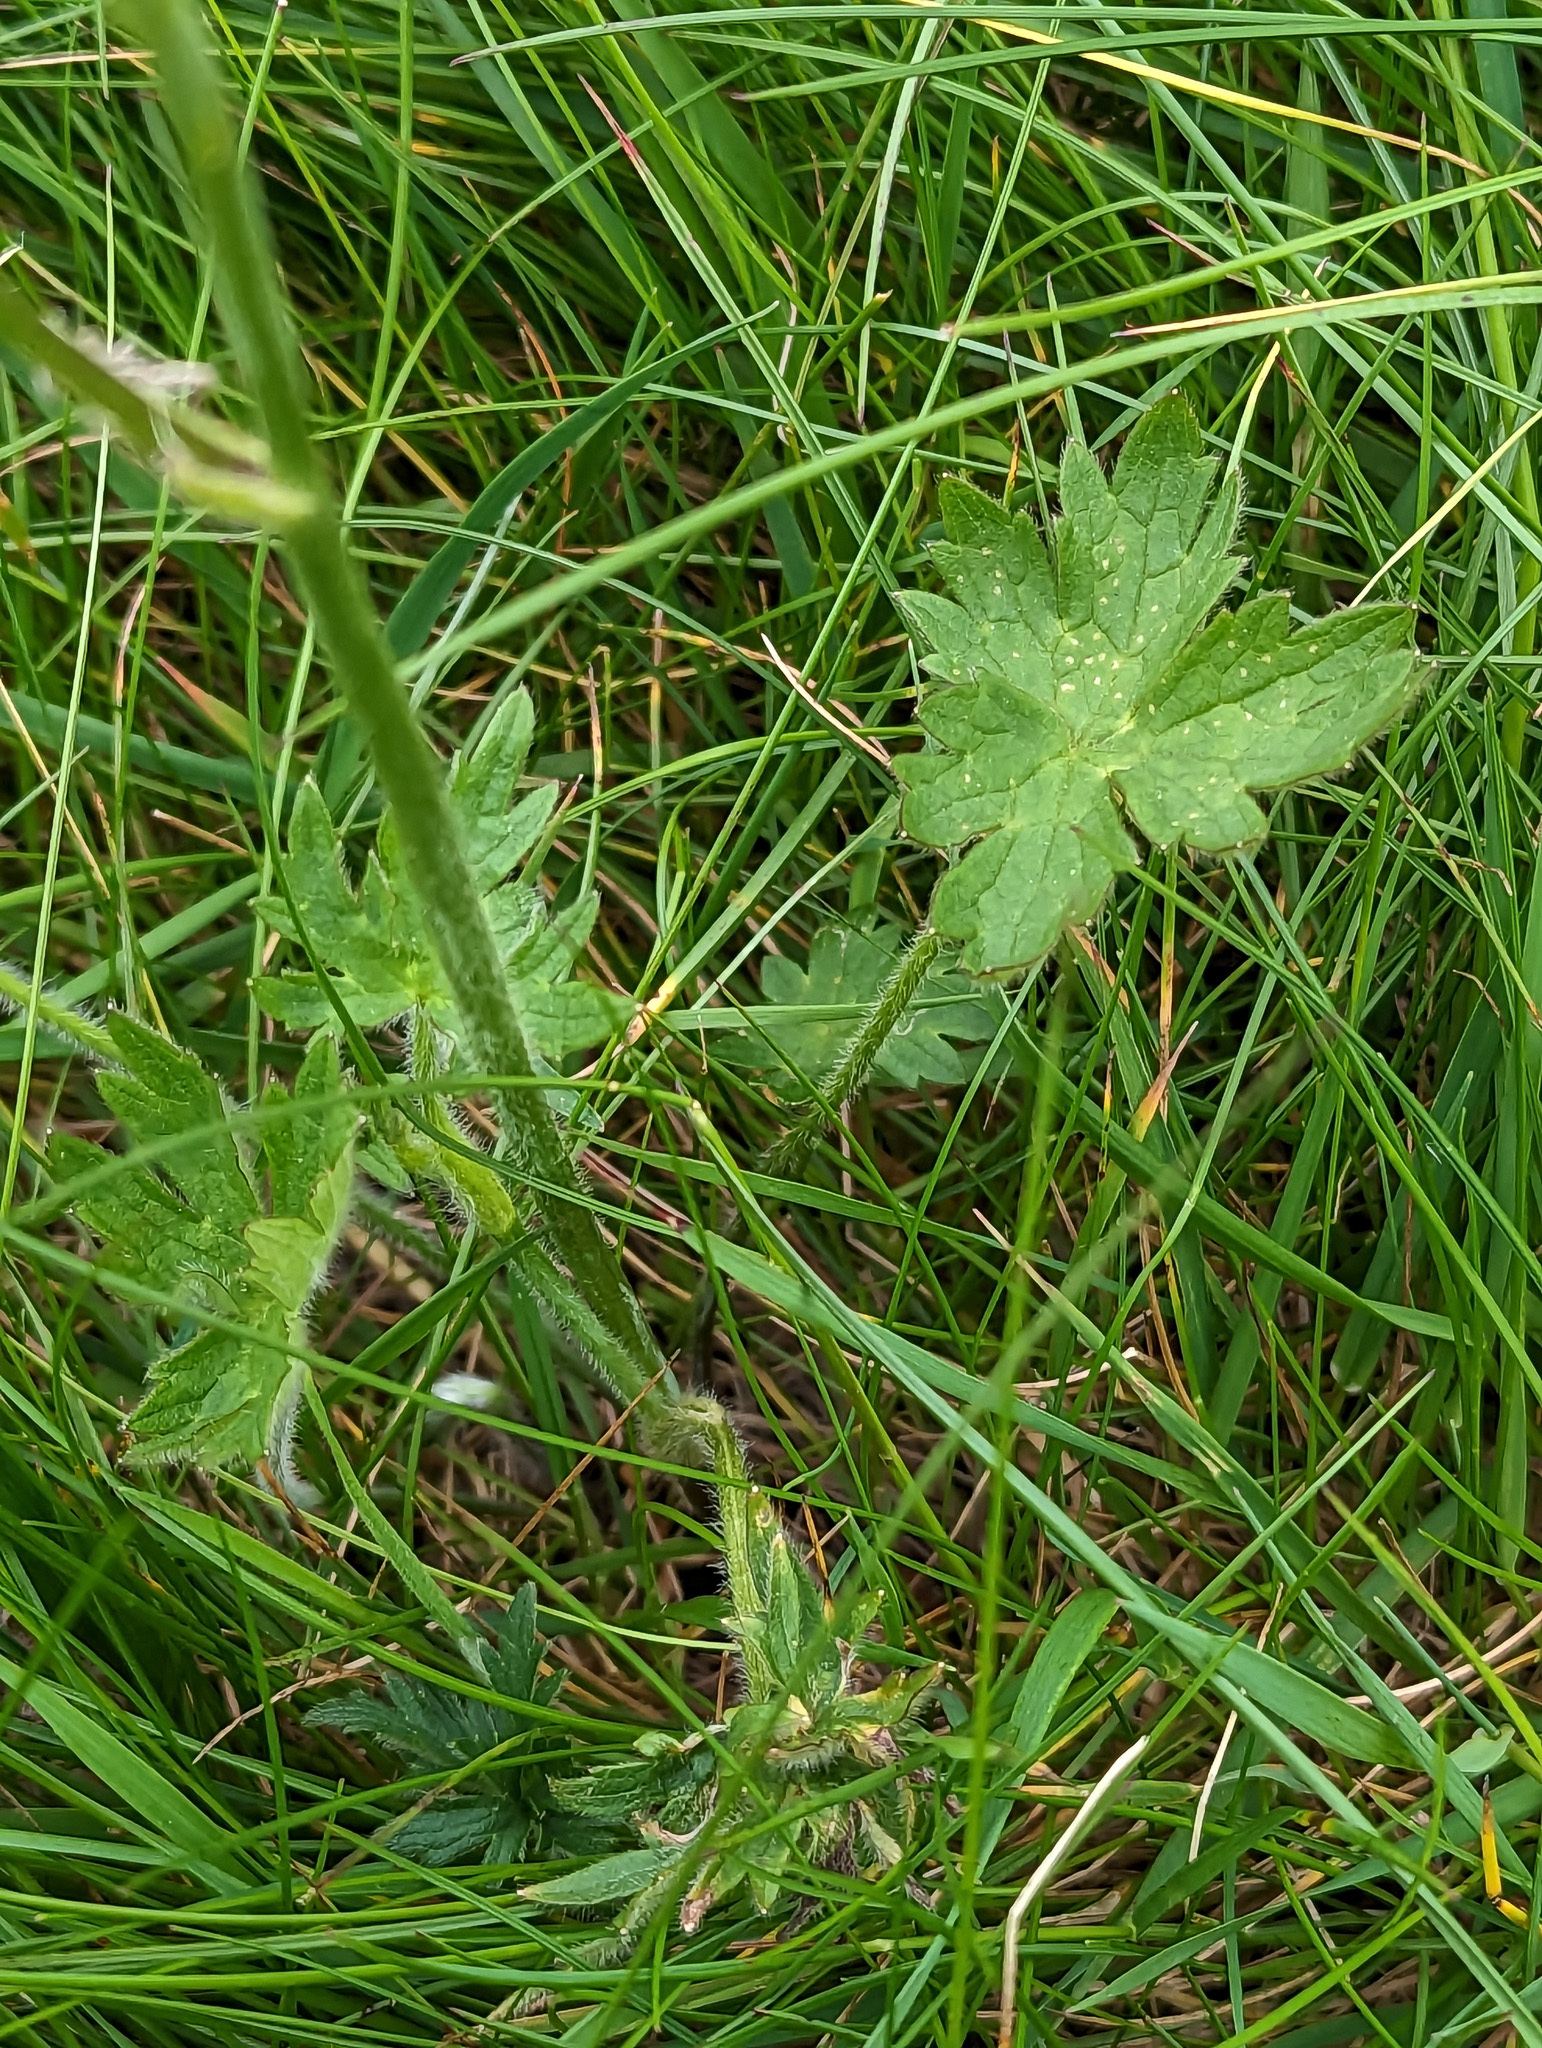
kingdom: Plantae
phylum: Tracheophyta
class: Magnoliopsida
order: Ranunculales
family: Ranunculaceae
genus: Ranunculus
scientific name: Ranunculus repens
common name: Creeping buttercup
